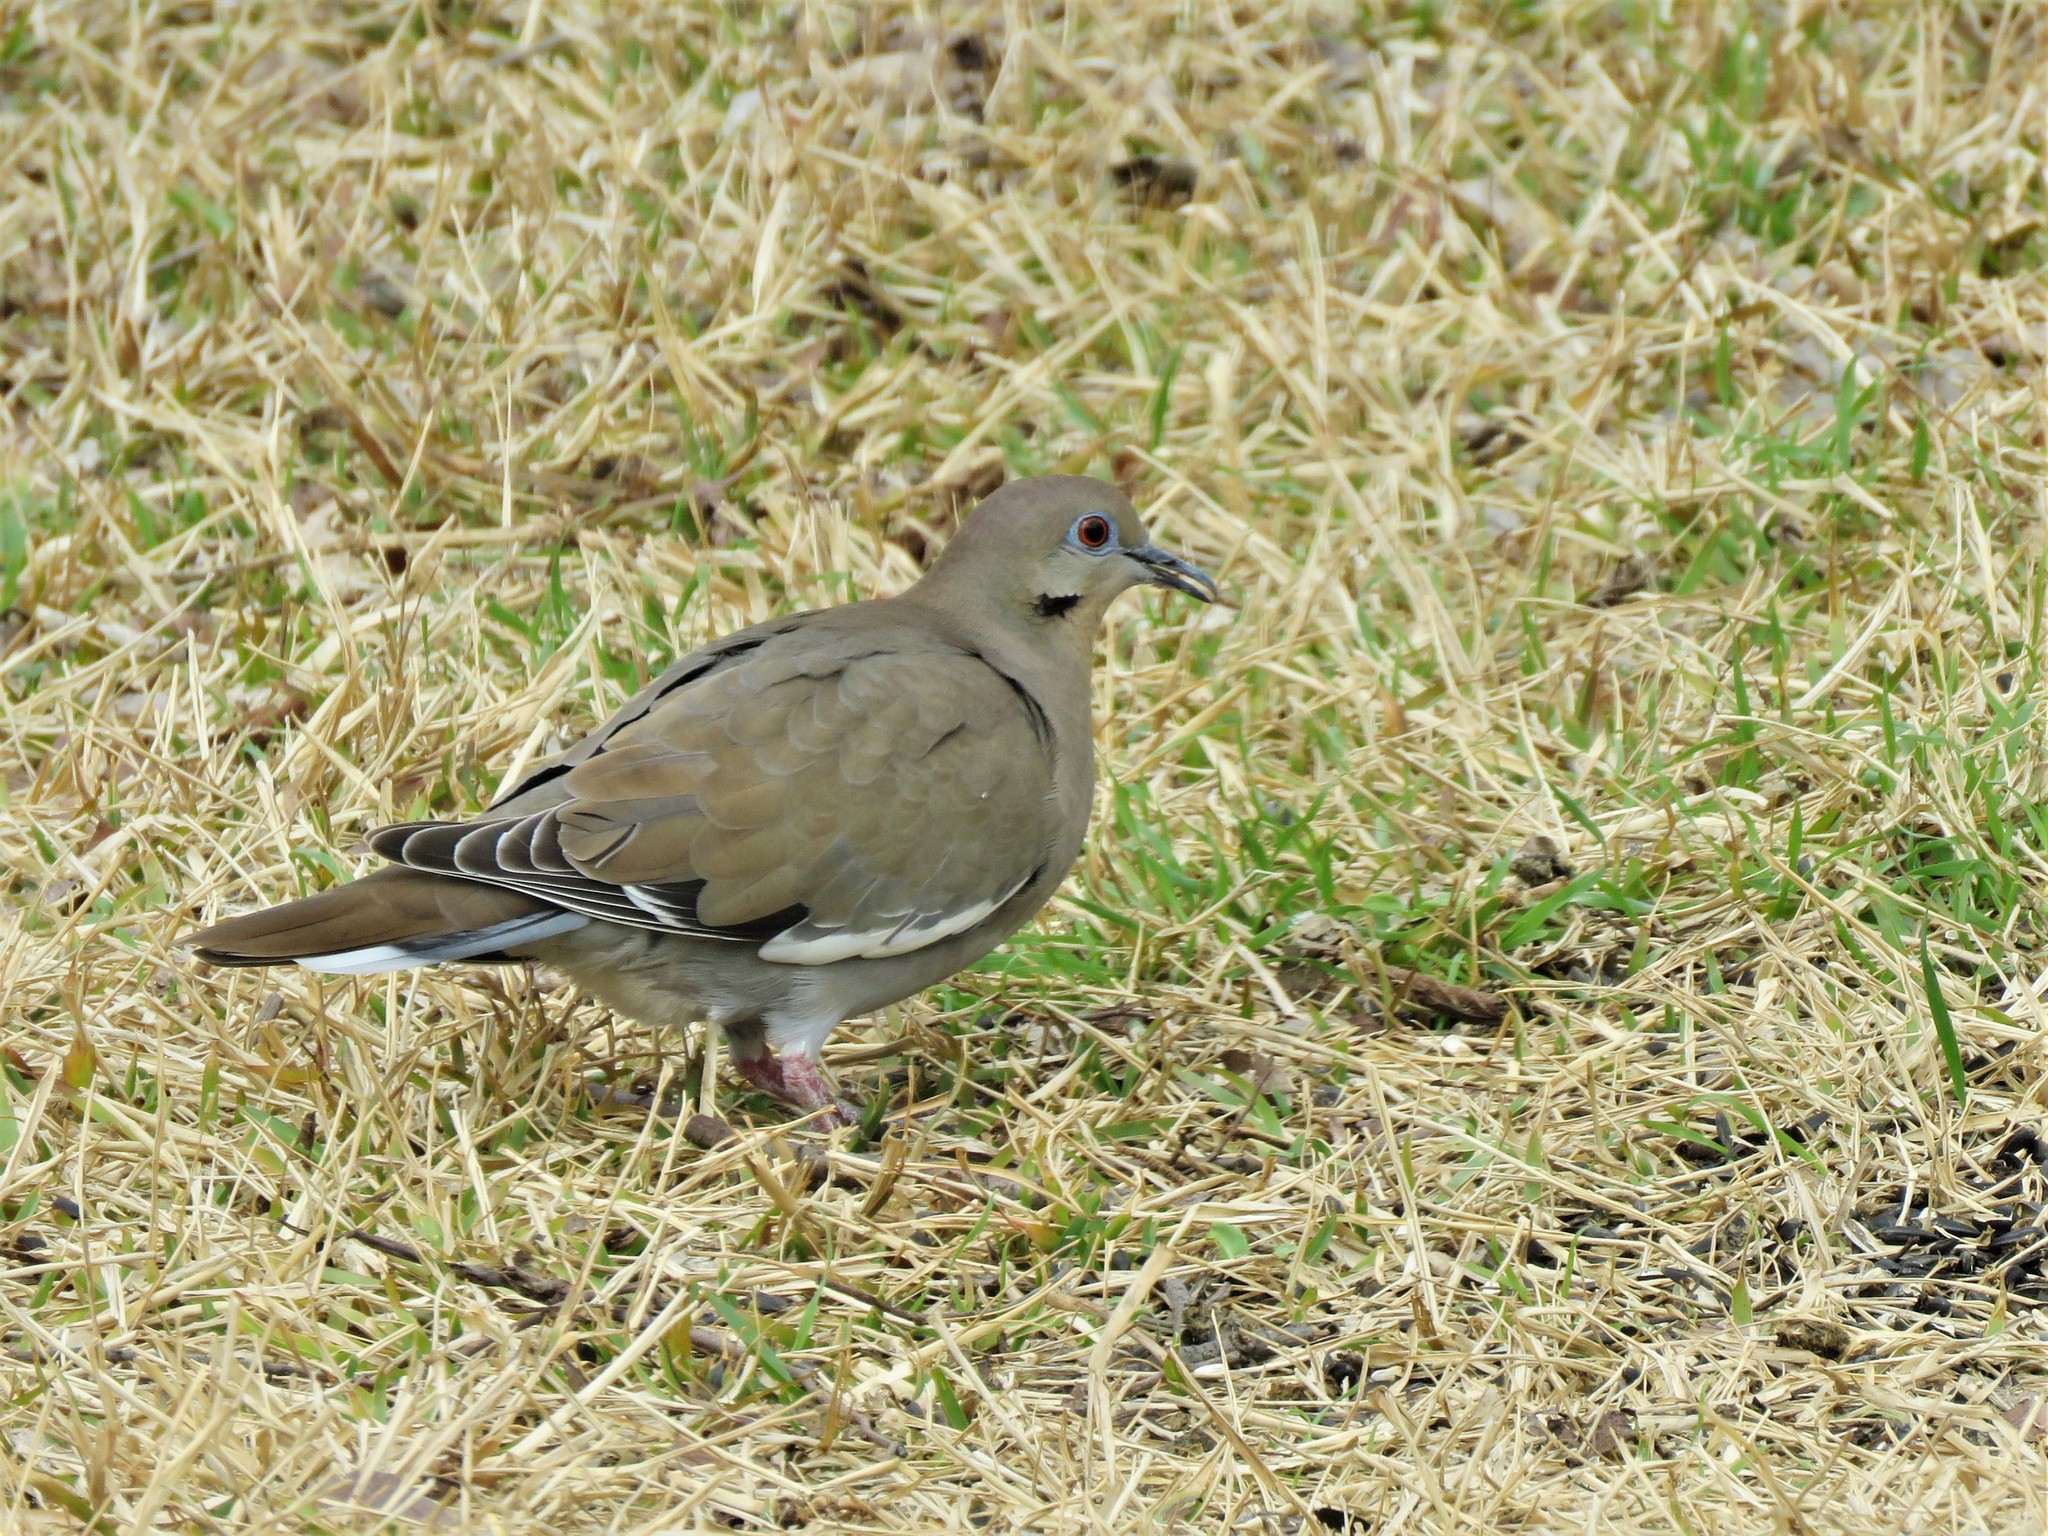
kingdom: Animalia
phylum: Chordata
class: Aves
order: Columbiformes
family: Columbidae
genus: Zenaida
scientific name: Zenaida asiatica
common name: White-winged dove
